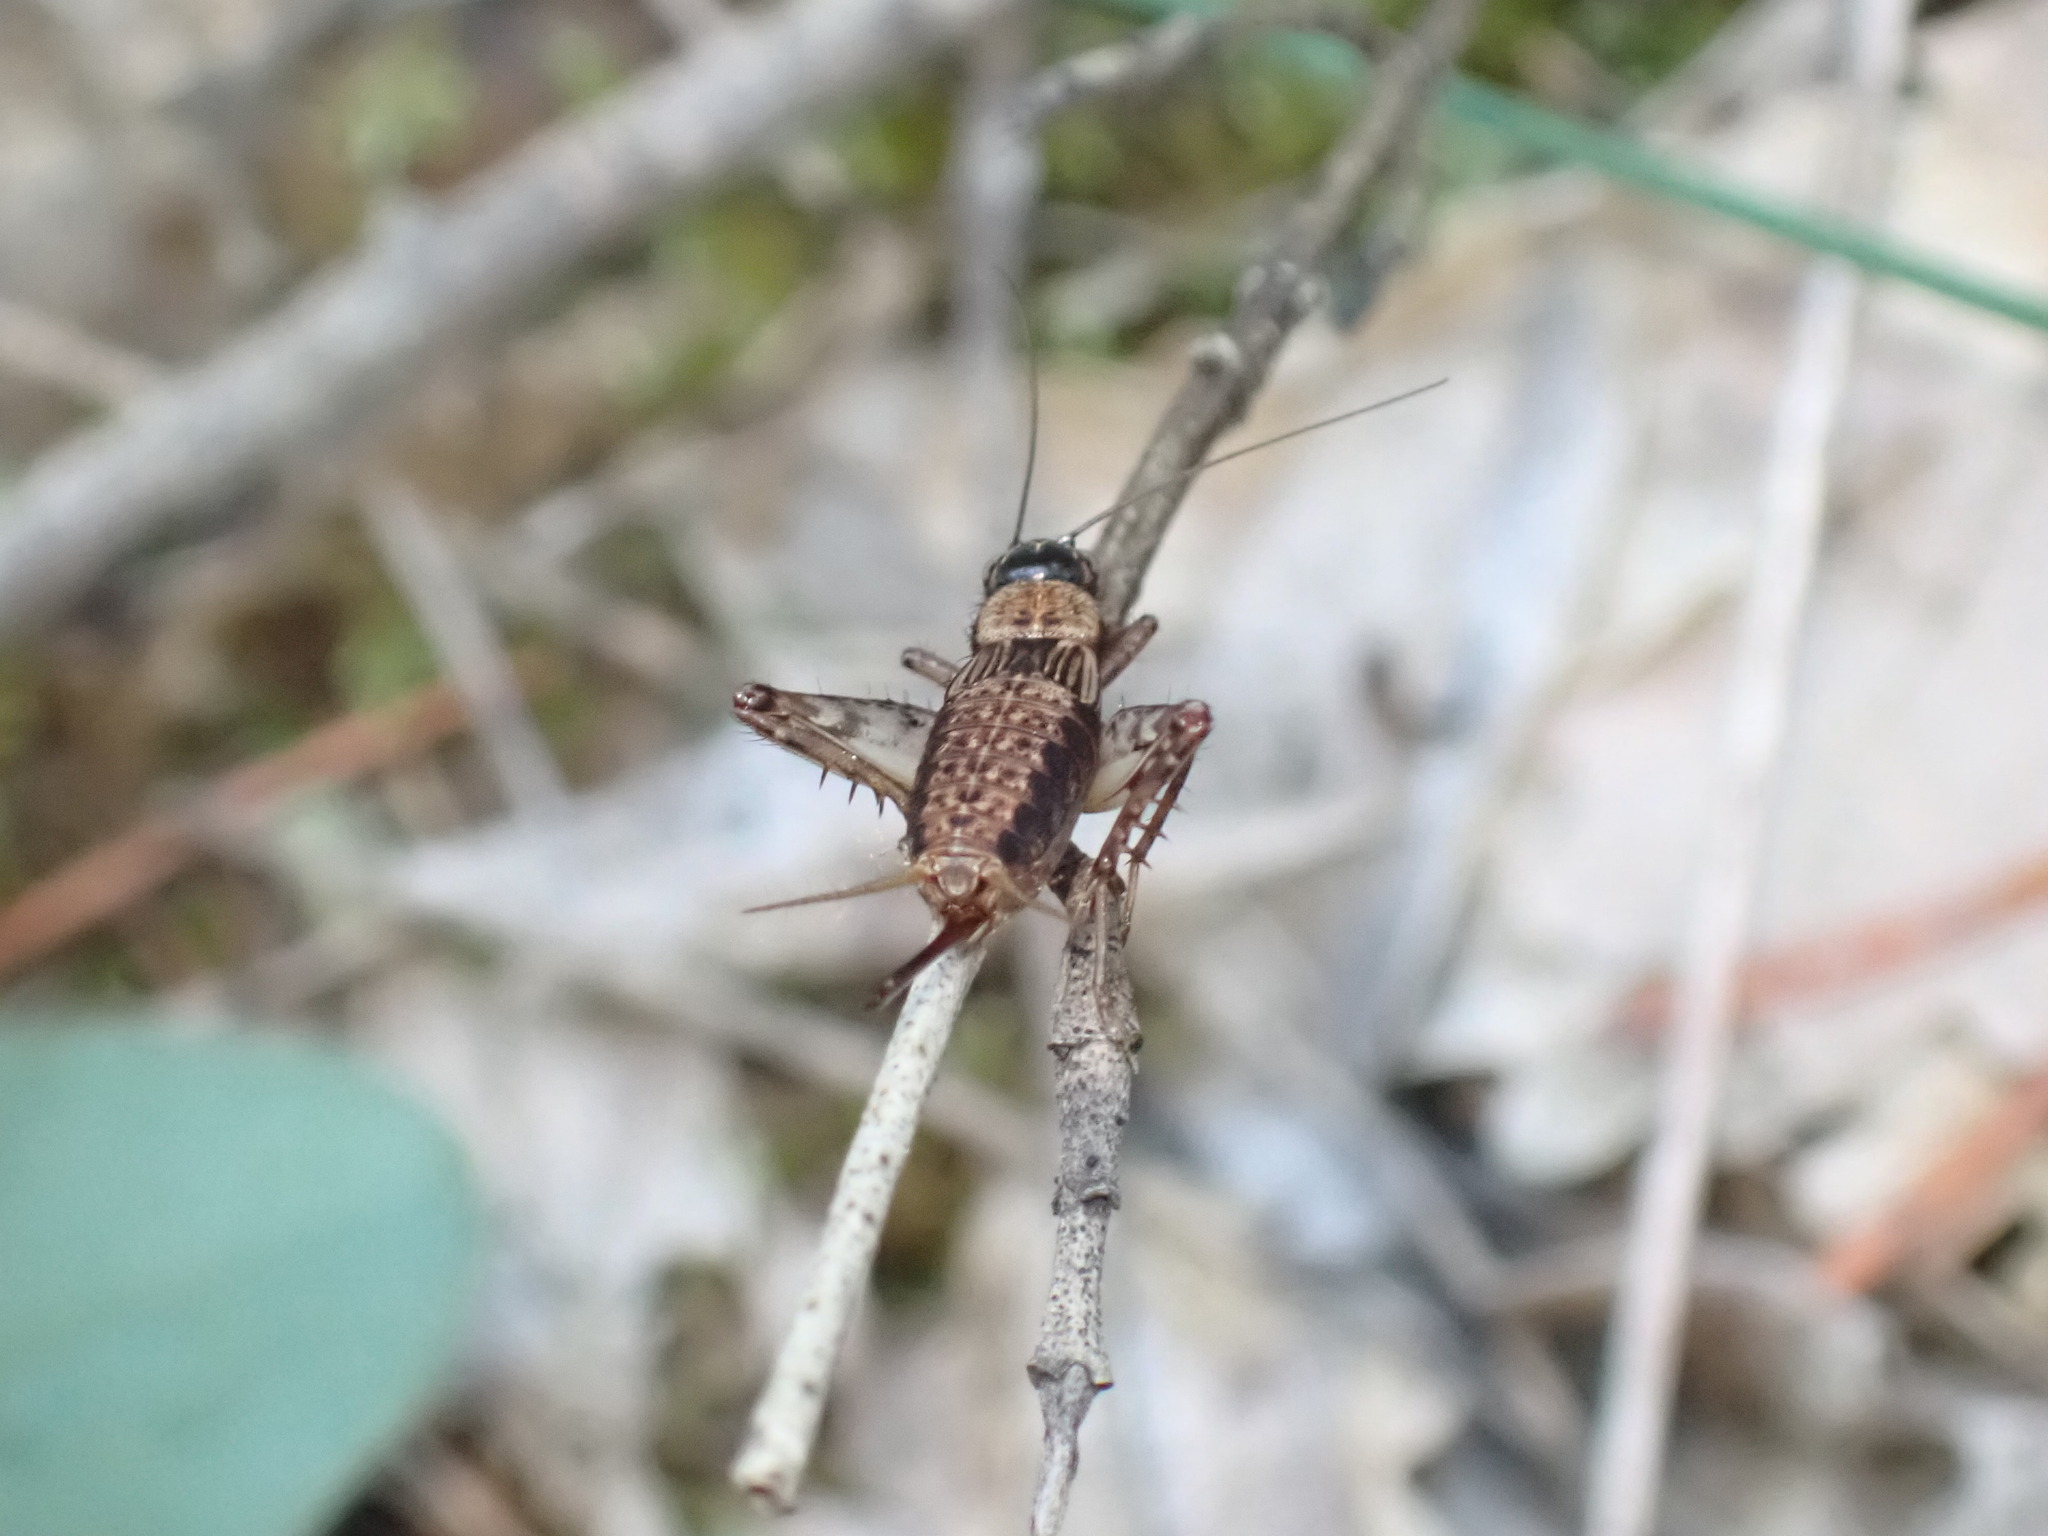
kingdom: Animalia
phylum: Arthropoda
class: Insecta
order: Orthoptera
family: Trigonidiidae
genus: Nemobius
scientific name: Nemobius sylvestris
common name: Wood-cricket
